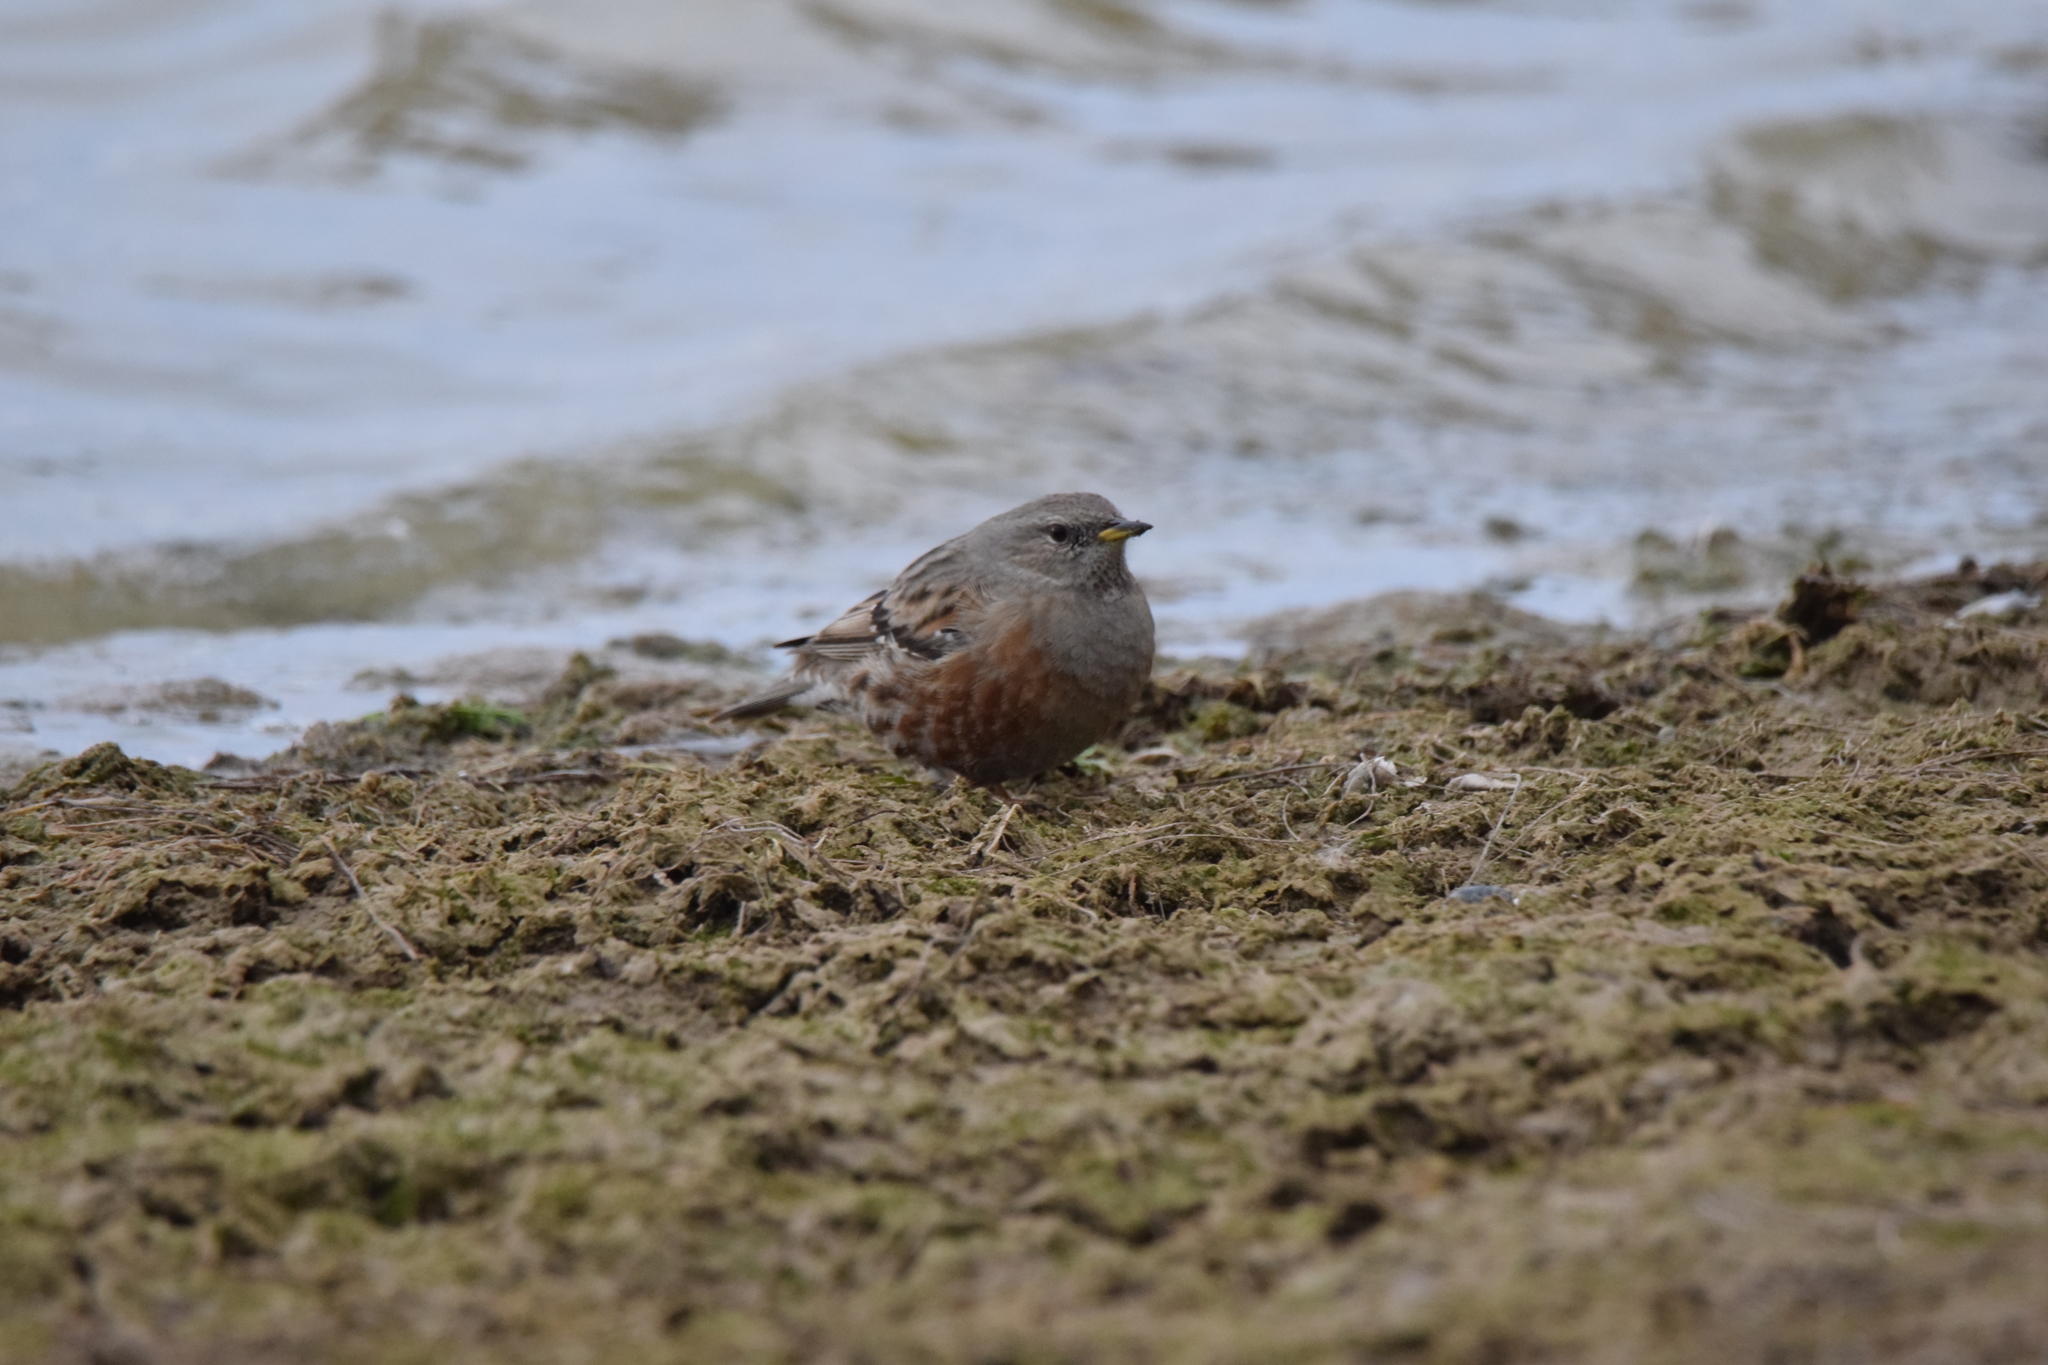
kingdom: Animalia
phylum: Chordata
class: Aves
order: Passeriformes
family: Prunellidae
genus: Prunella
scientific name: Prunella collaris
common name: Alpine accentor
